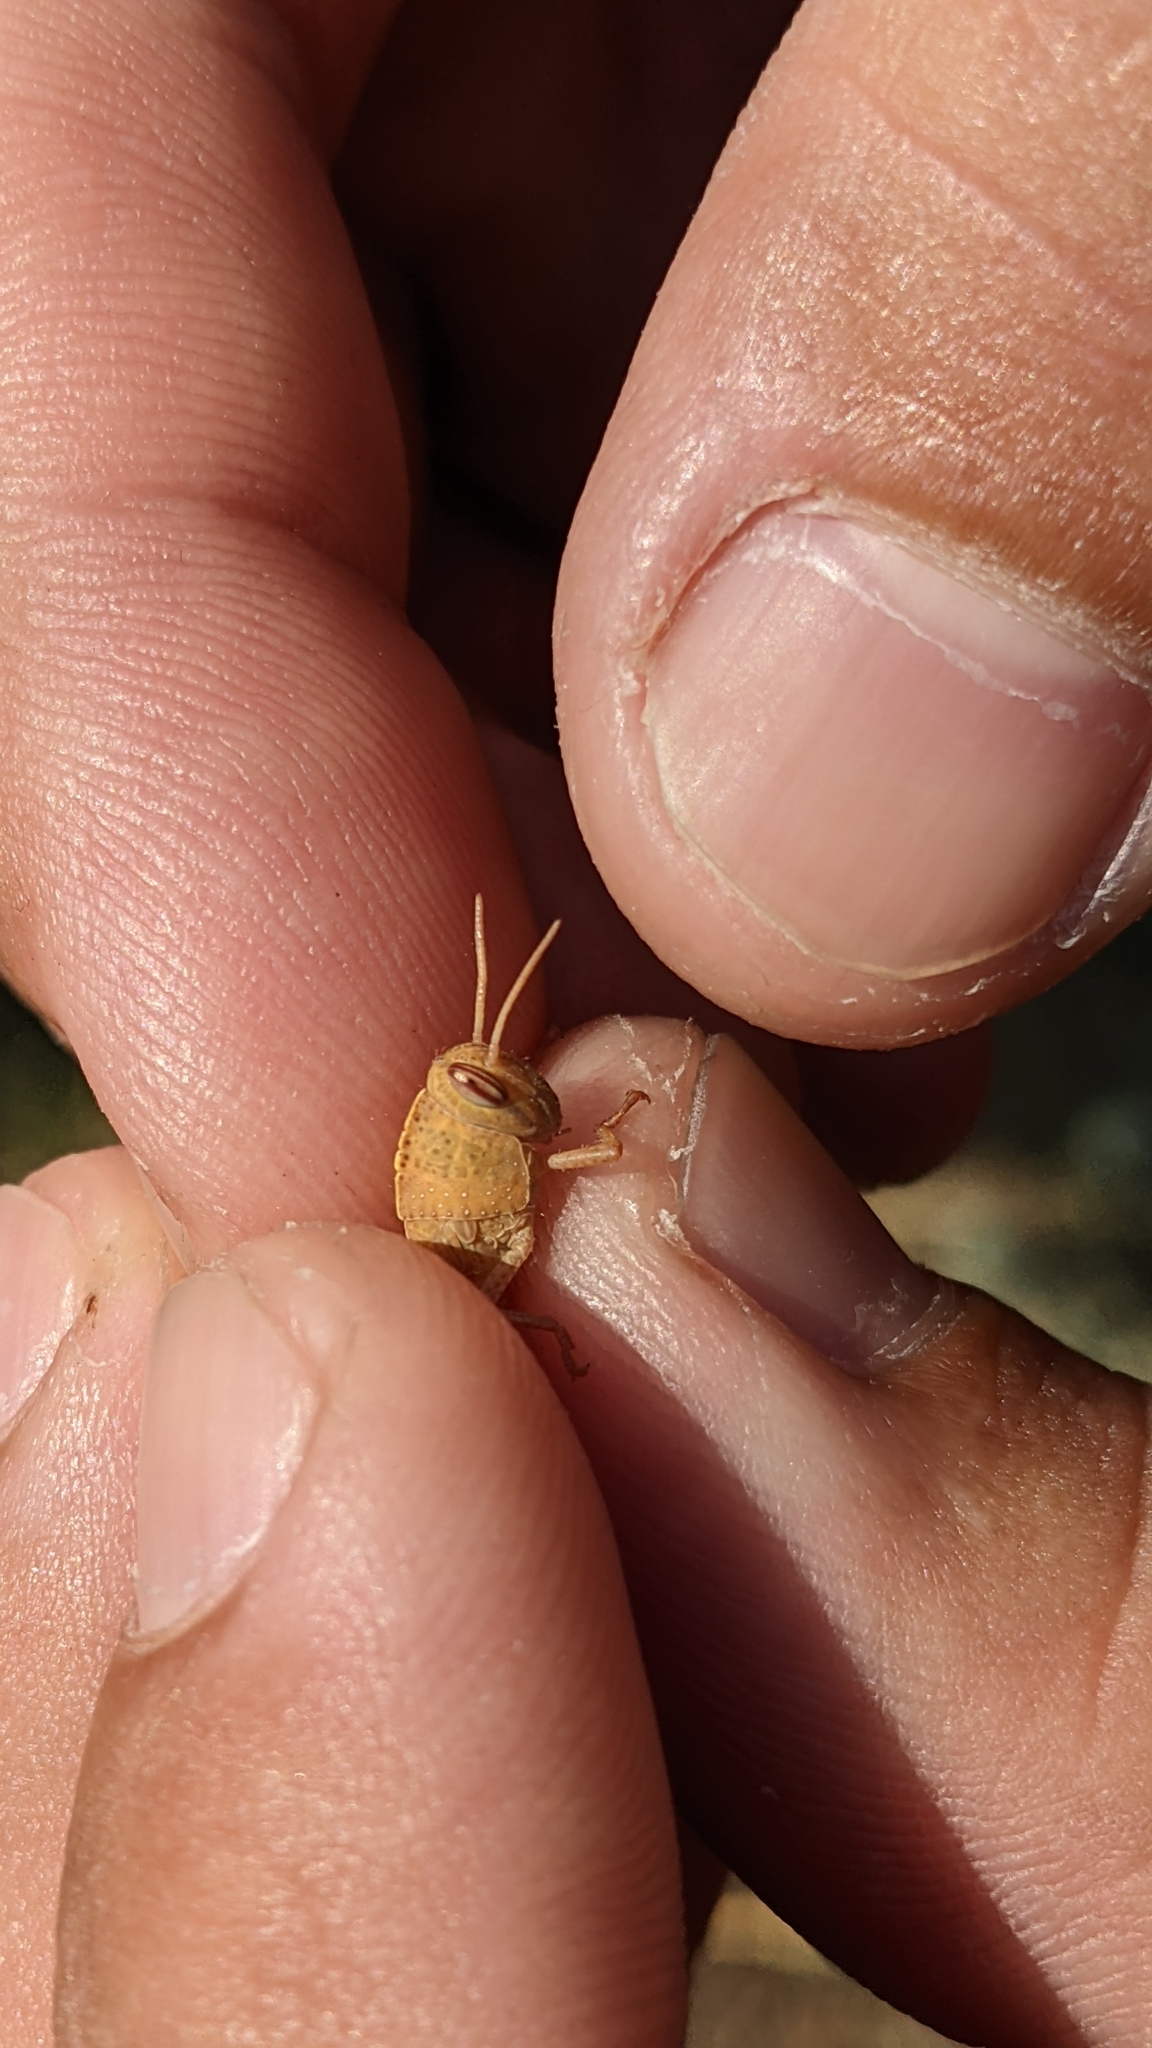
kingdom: Animalia
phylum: Arthropoda
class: Insecta
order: Orthoptera
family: Acrididae
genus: Anacridium
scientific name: Anacridium aegyptium
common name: Egyptian grasshopper
